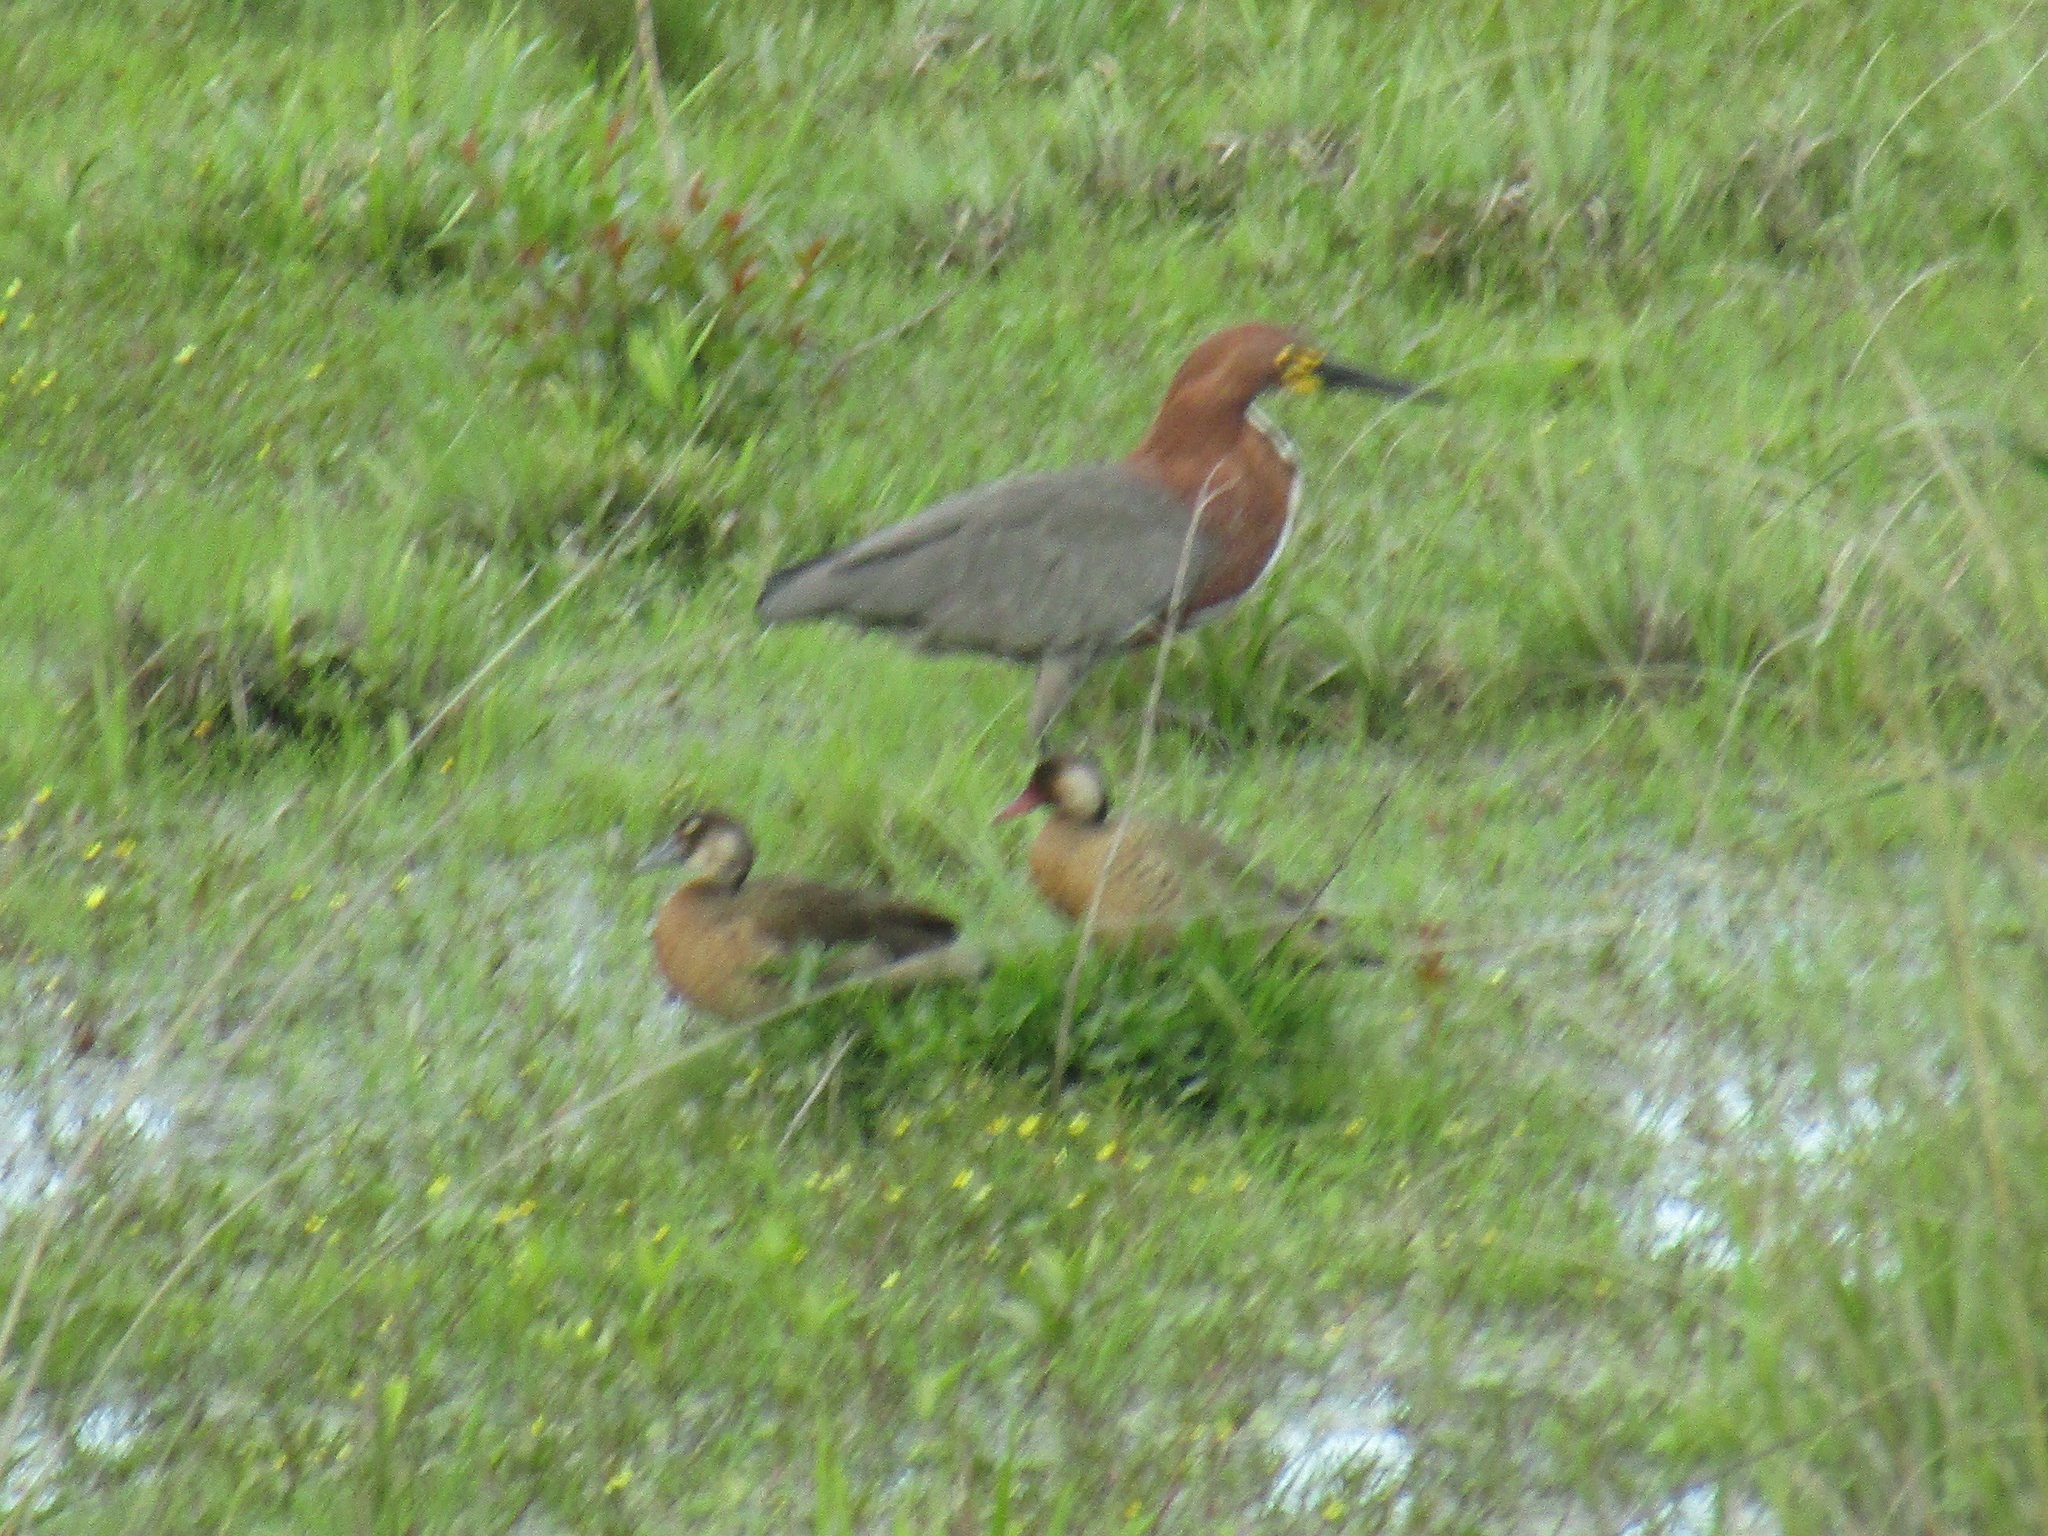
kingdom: Animalia
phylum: Chordata
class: Aves
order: Pelecaniformes
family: Ardeidae
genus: Tigrisoma
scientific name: Tigrisoma lineatum
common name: Rufescent tiger-heron
